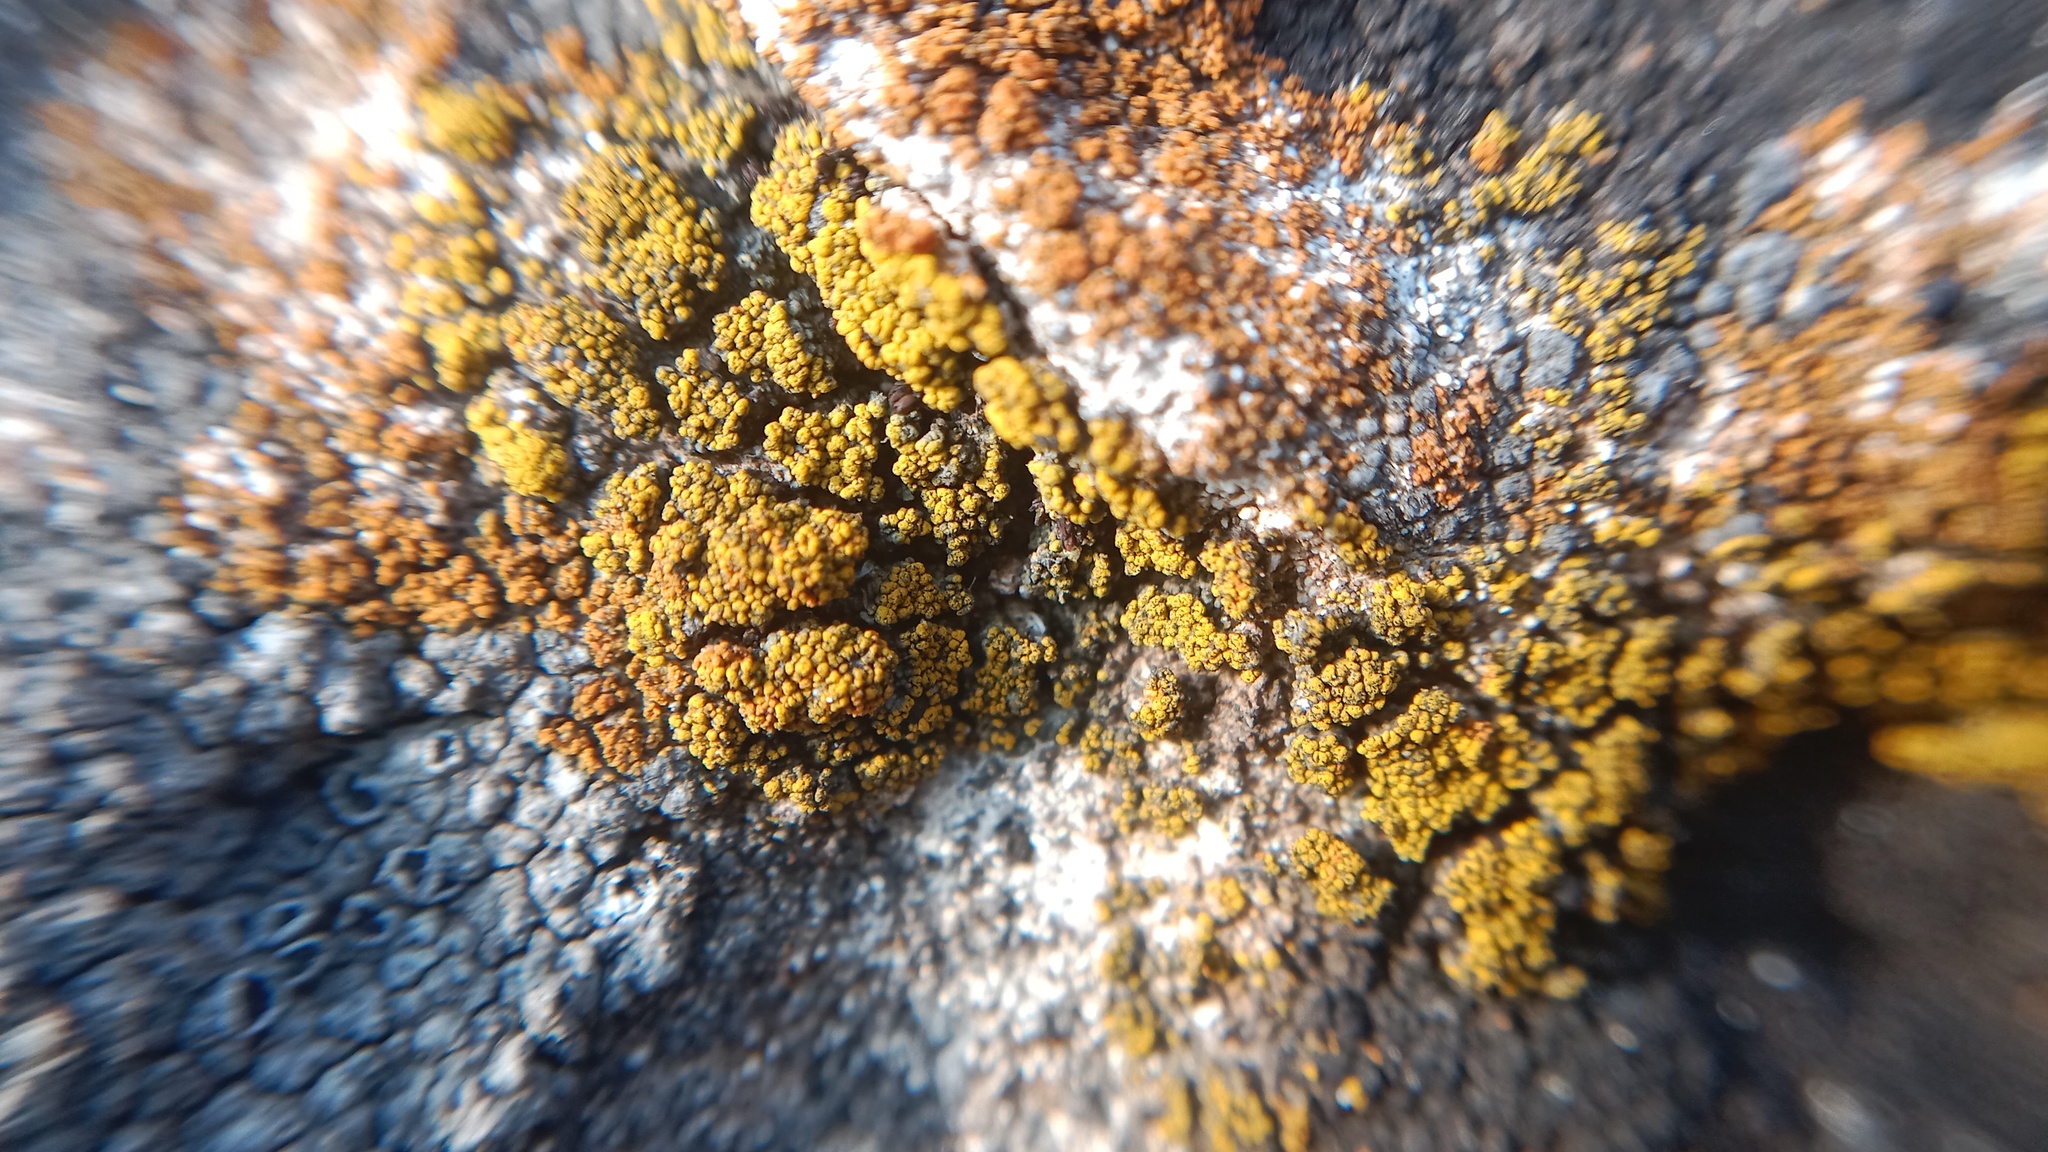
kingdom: Fungi
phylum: Ascomycota
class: Candelariomycetes
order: Candelariales
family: Candelariaceae
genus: Candelariella
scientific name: Candelariella rosulans
